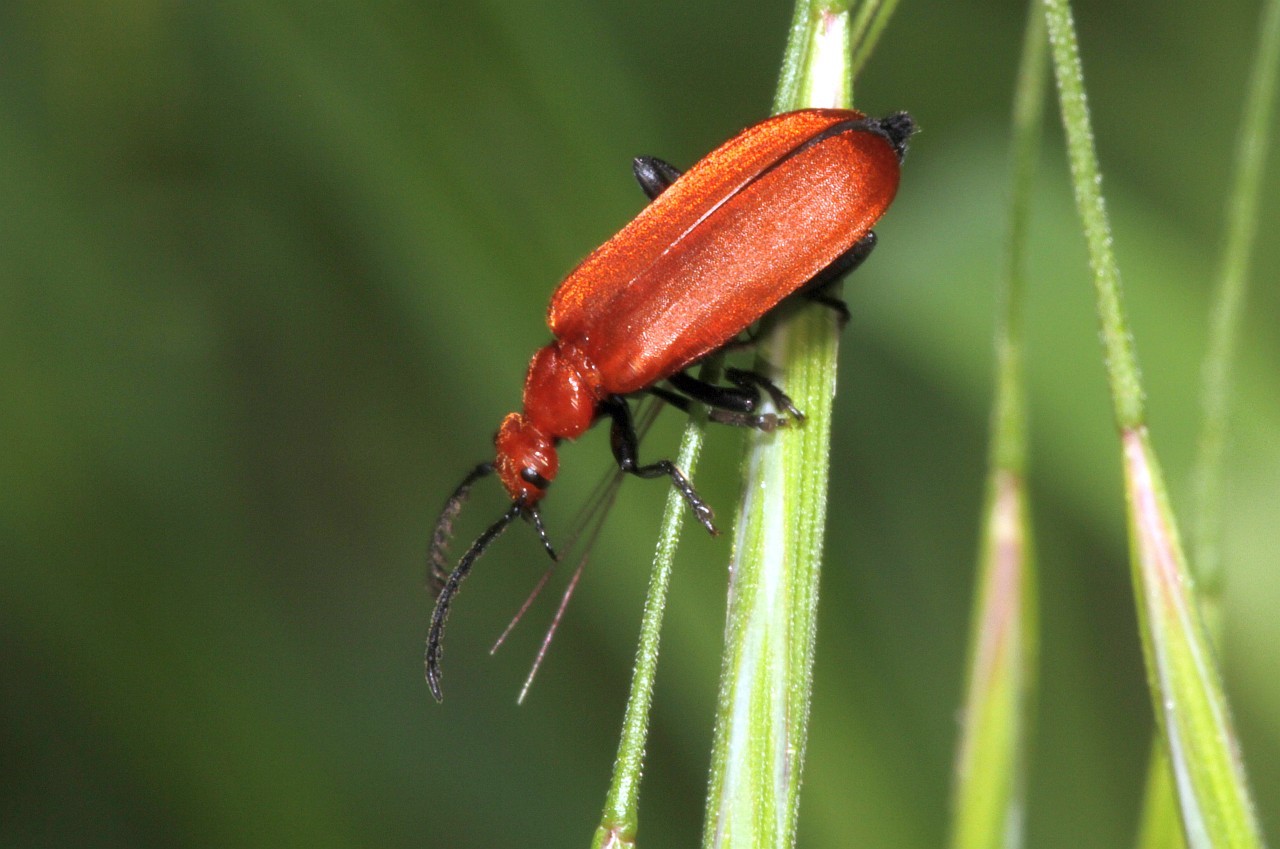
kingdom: Animalia
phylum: Arthropoda
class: Insecta
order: Coleoptera
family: Pyrochroidae
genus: Pyrochroa
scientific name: Pyrochroa serraticornis
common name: Red-headed cardinal beetle
